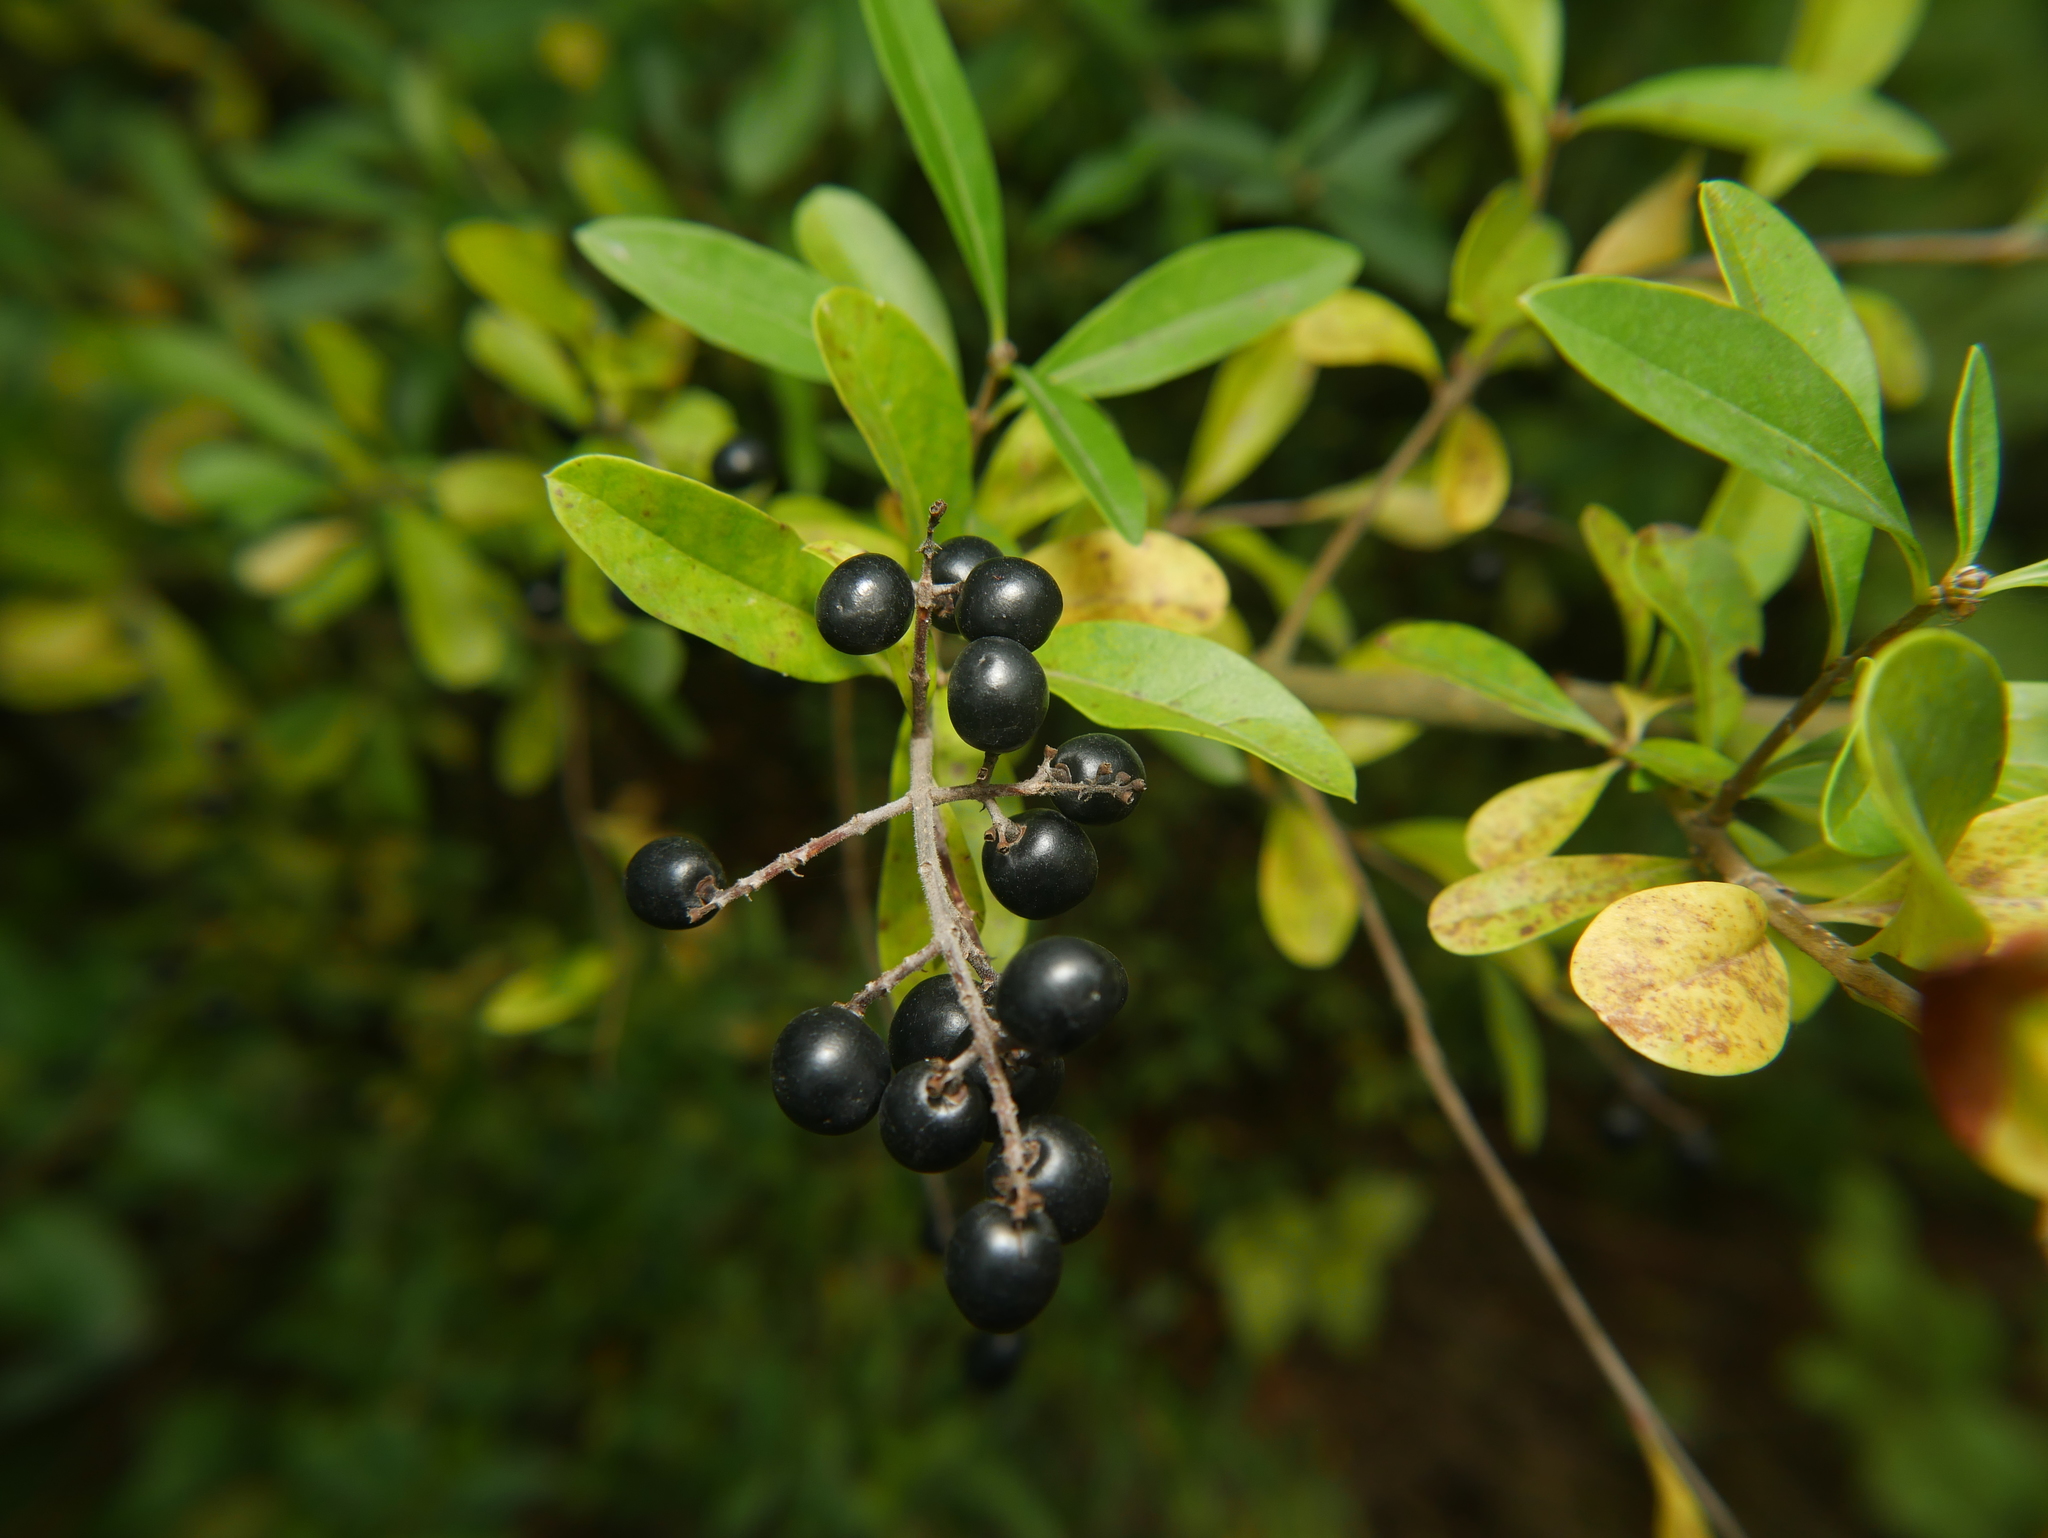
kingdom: Plantae
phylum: Tracheophyta
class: Magnoliopsida
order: Lamiales
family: Oleaceae
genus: Ligustrum
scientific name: Ligustrum vulgare
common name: Wild privet
